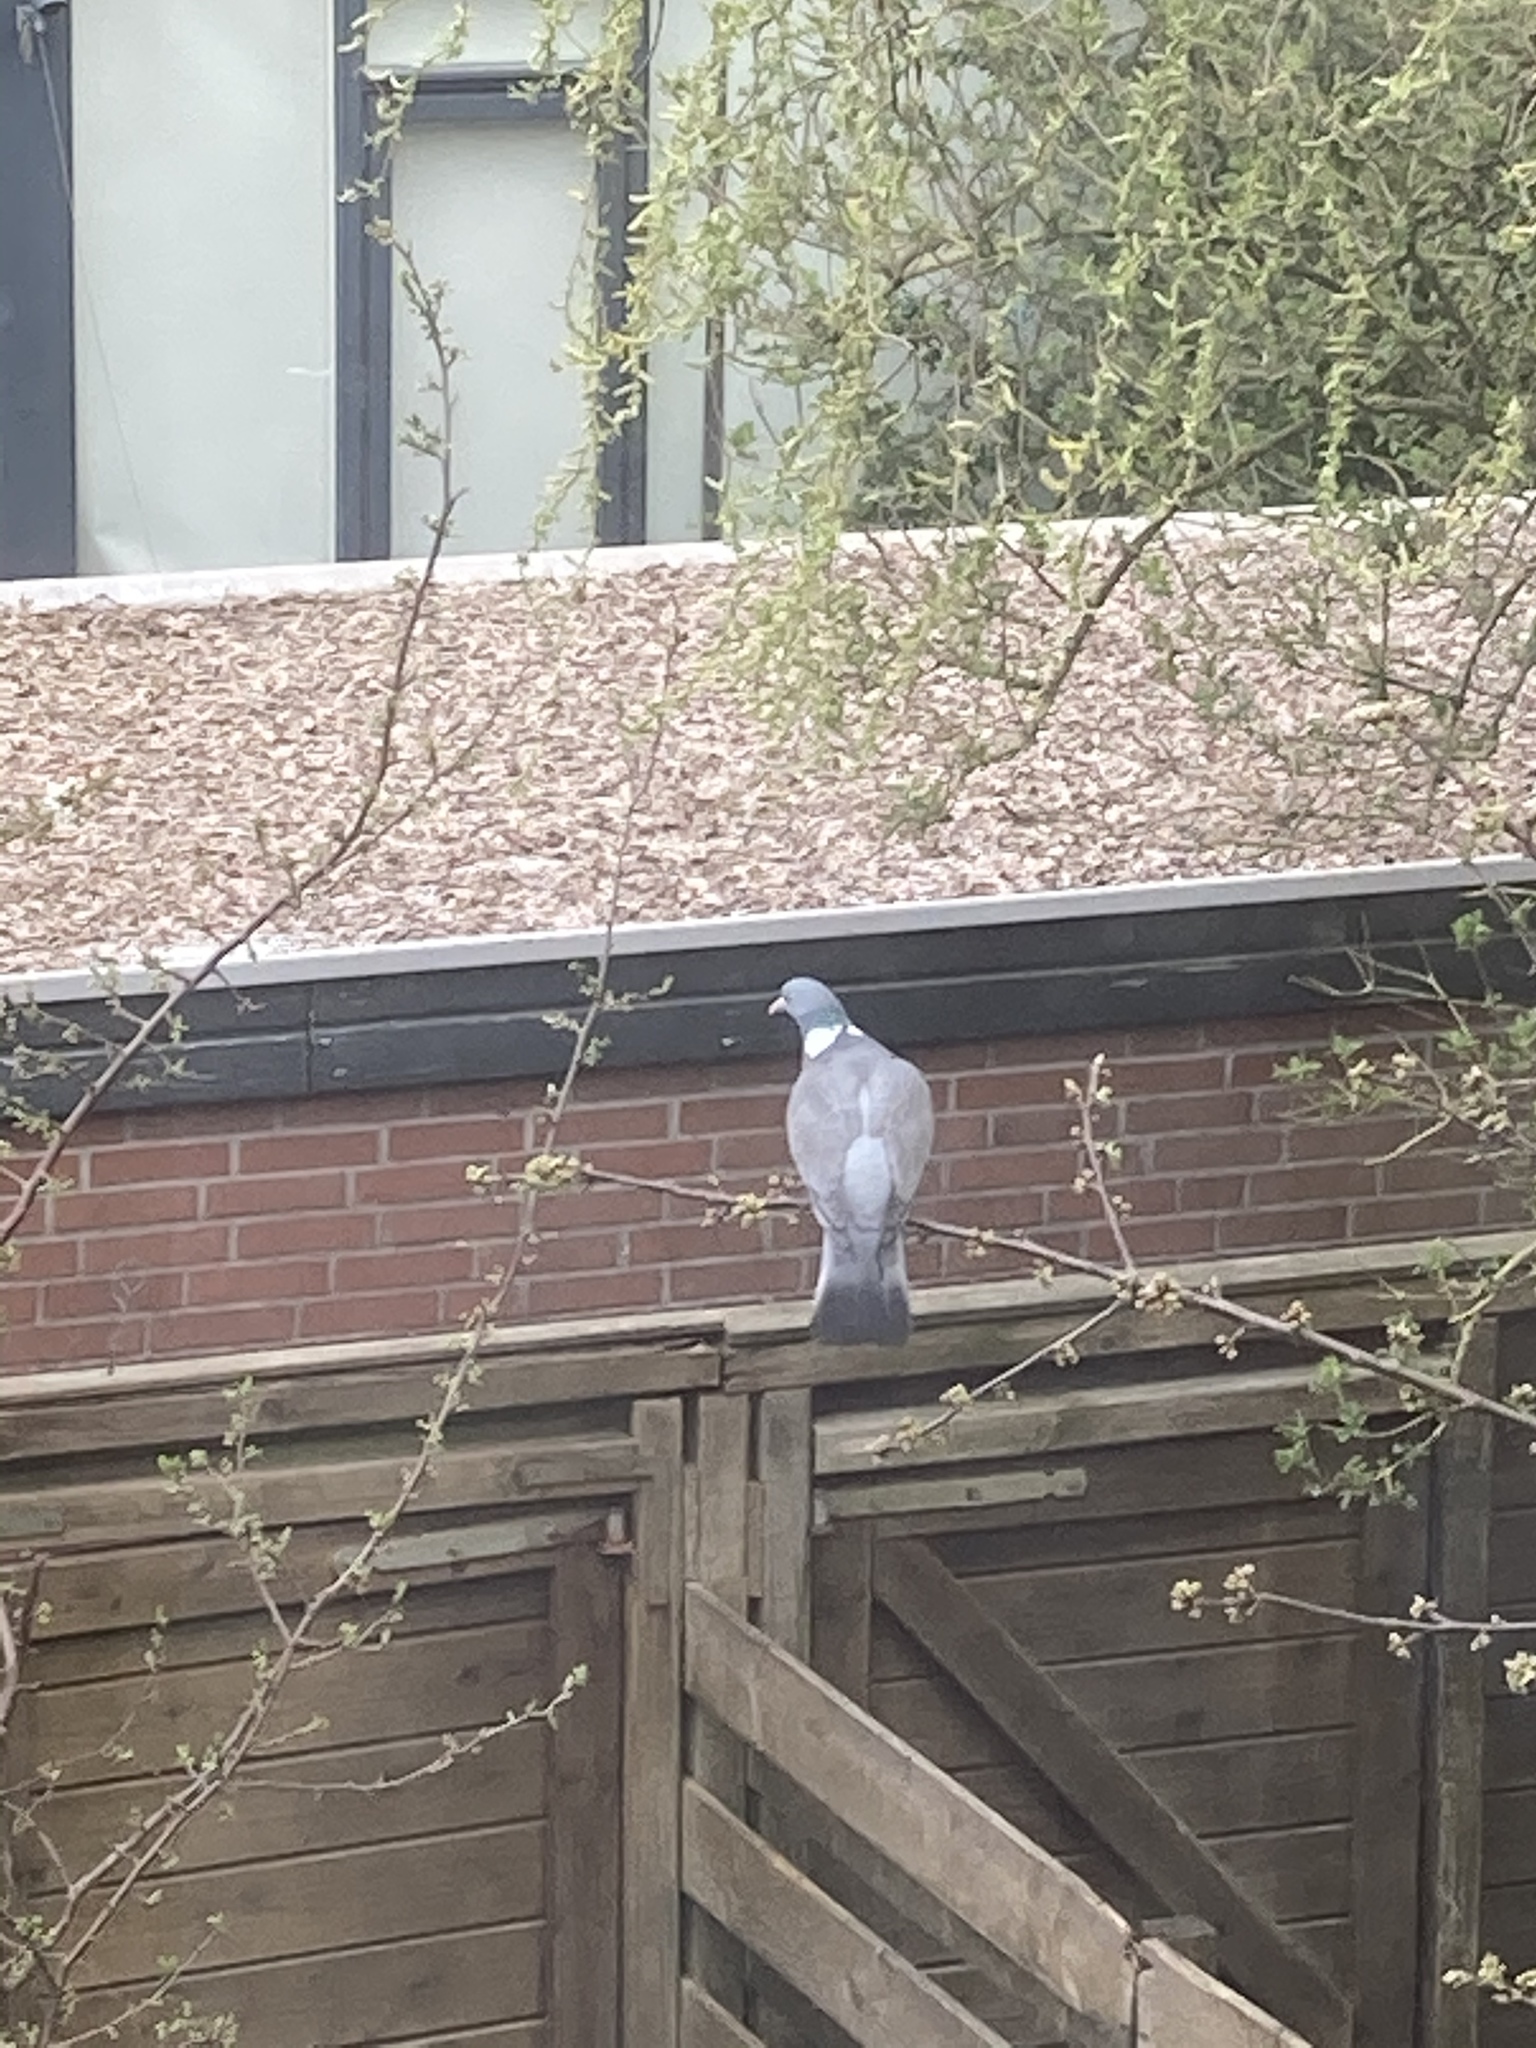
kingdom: Animalia
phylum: Chordata
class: Aves
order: Columbiformes
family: Columbidae
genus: Columba
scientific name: Columba palumbus
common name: Common wood pigeon
